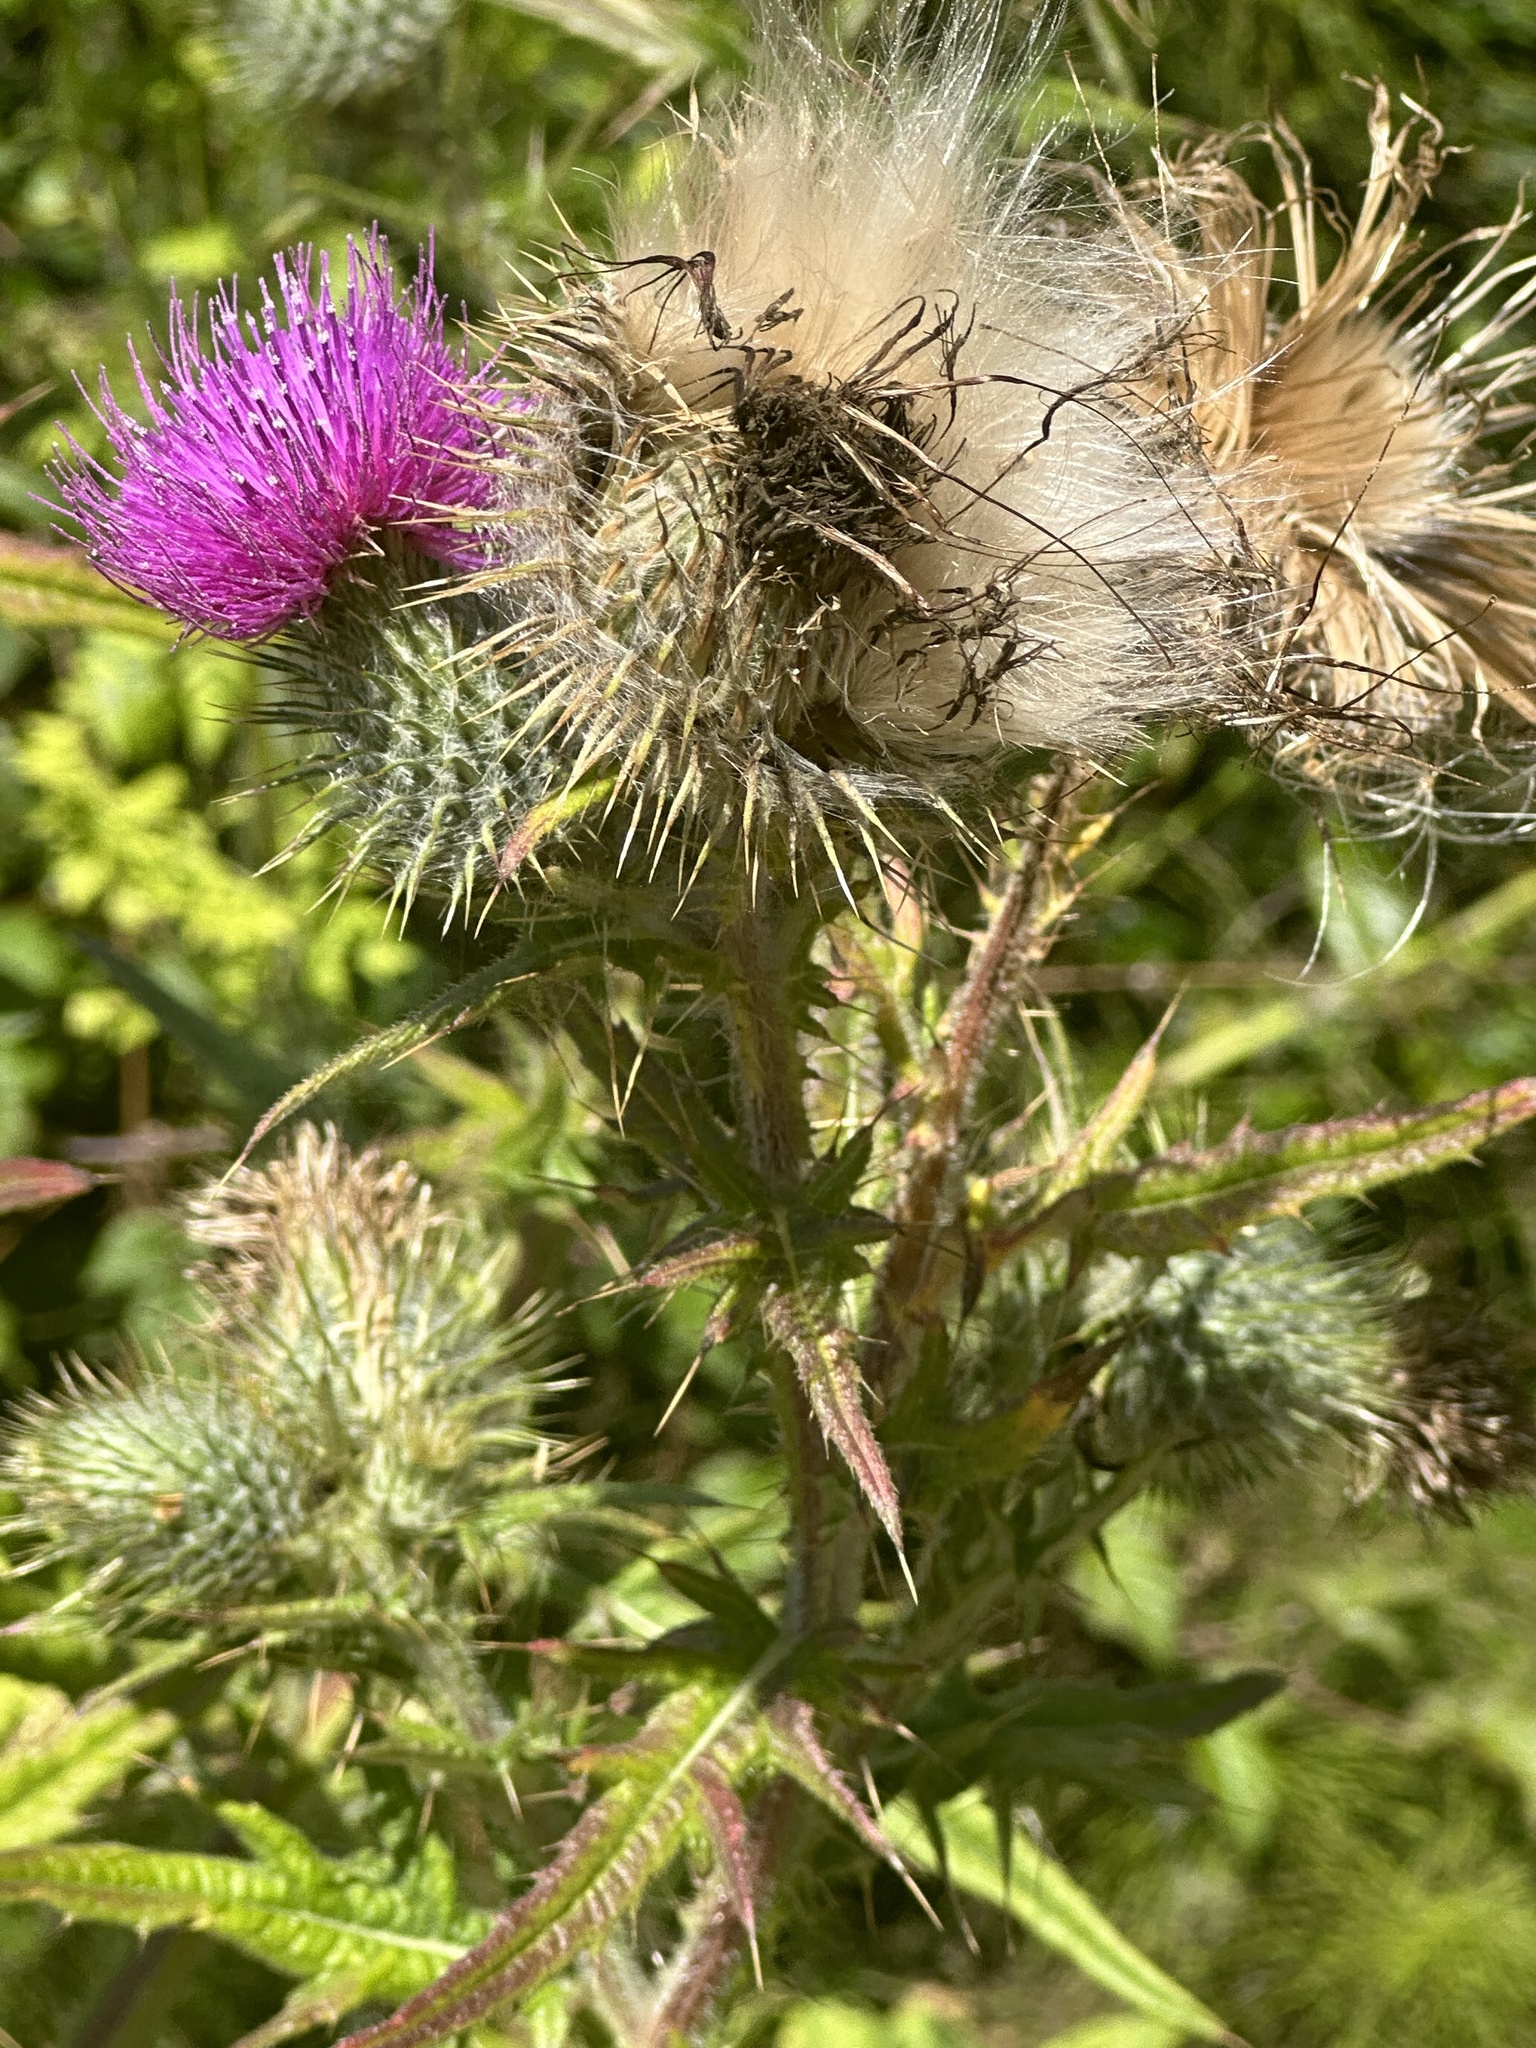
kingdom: Plantae
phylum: Tracheophyta
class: Magnoliopsida
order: Asterales
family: Asteraceae
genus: Cirsium
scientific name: Cirsium vulgare
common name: Bull thistle
